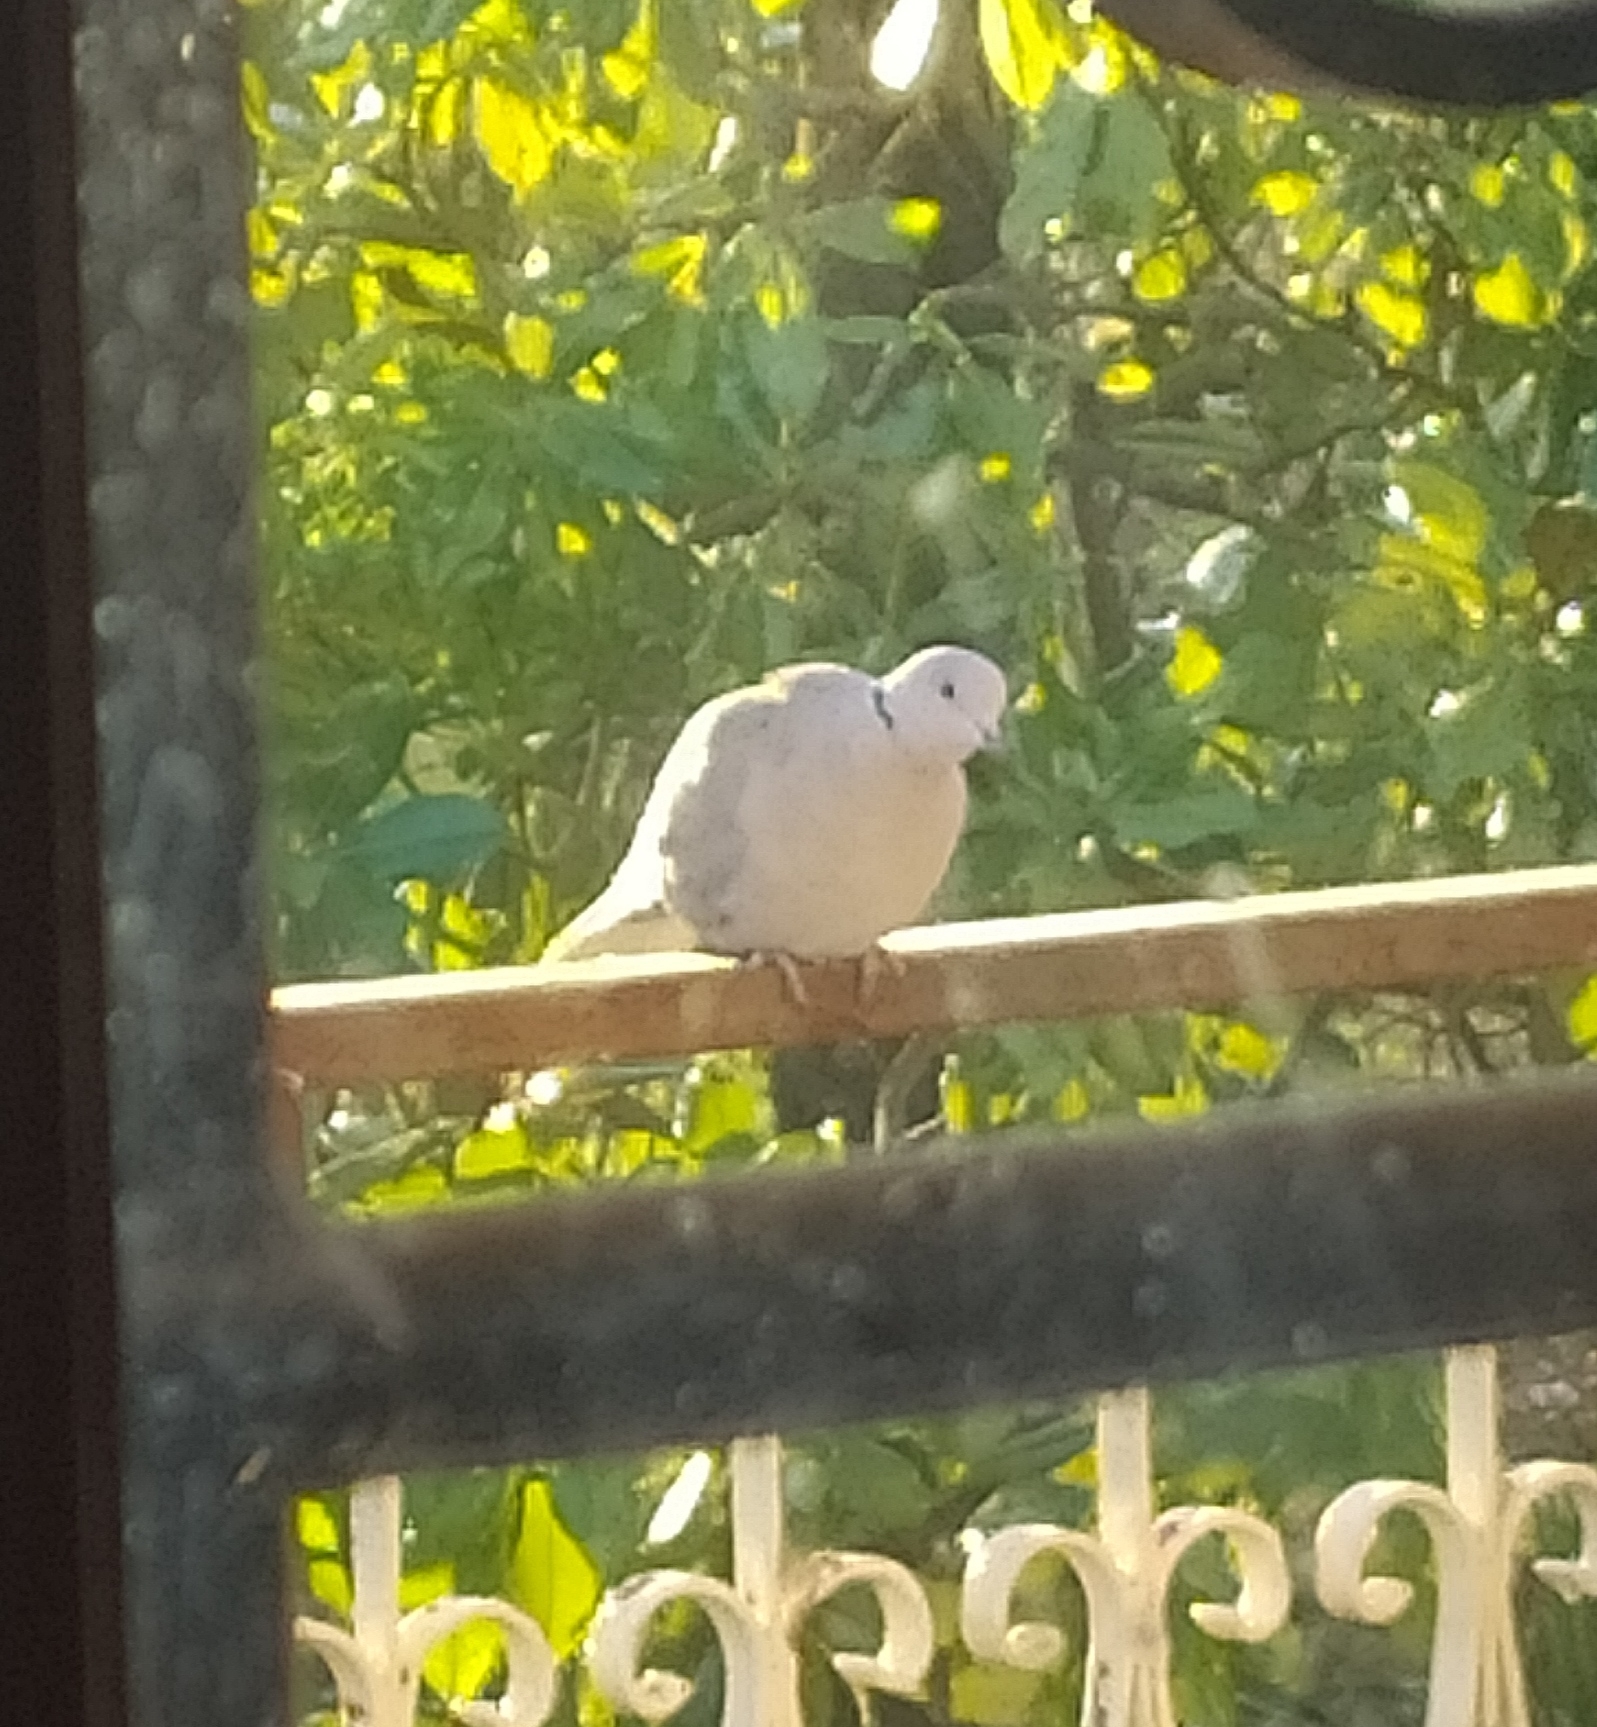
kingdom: Animalia
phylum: Chordata
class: Aves
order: Columbiformes
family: Columbidae
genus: Streptopelia
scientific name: Streptopelia decaocto
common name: Eurasian collared dove
